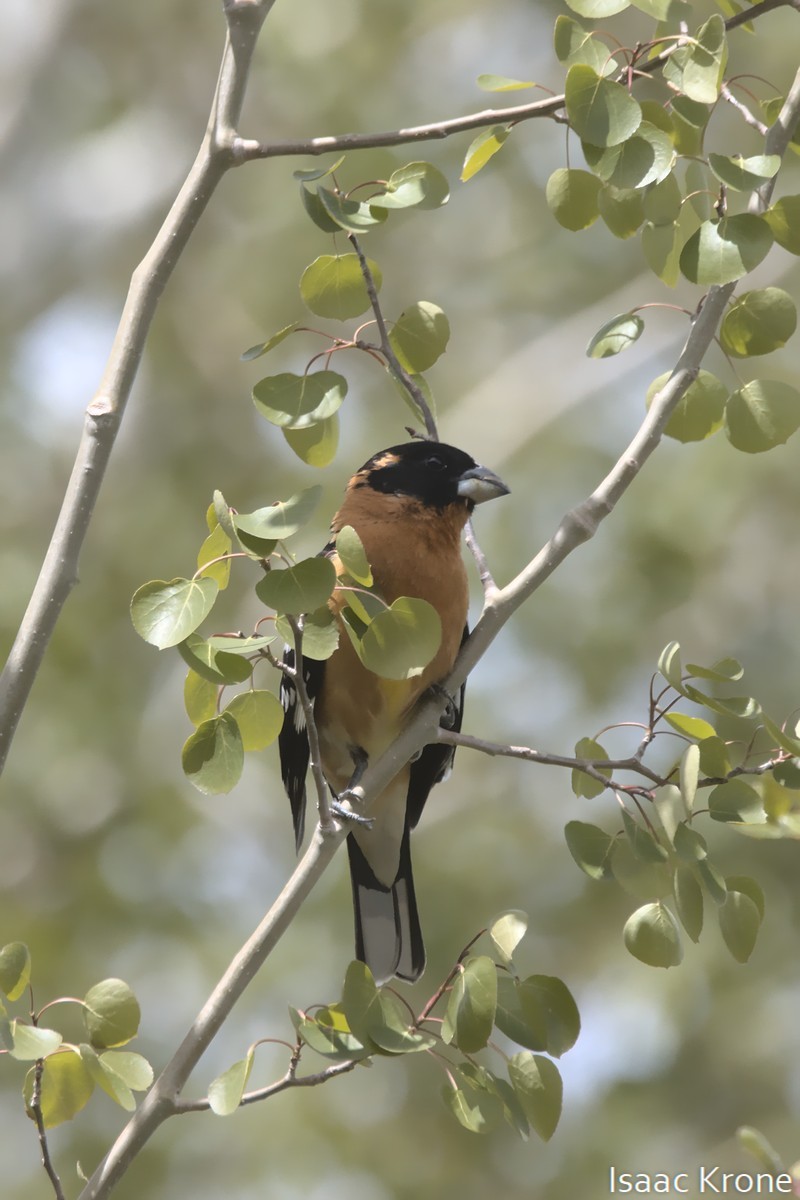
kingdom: Animalia
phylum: Chordata
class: Aves
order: Passeriformes
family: Cardinalidae
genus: Pheucticus
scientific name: Pheucticus melanocephalus
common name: Black-headed grosbeak
